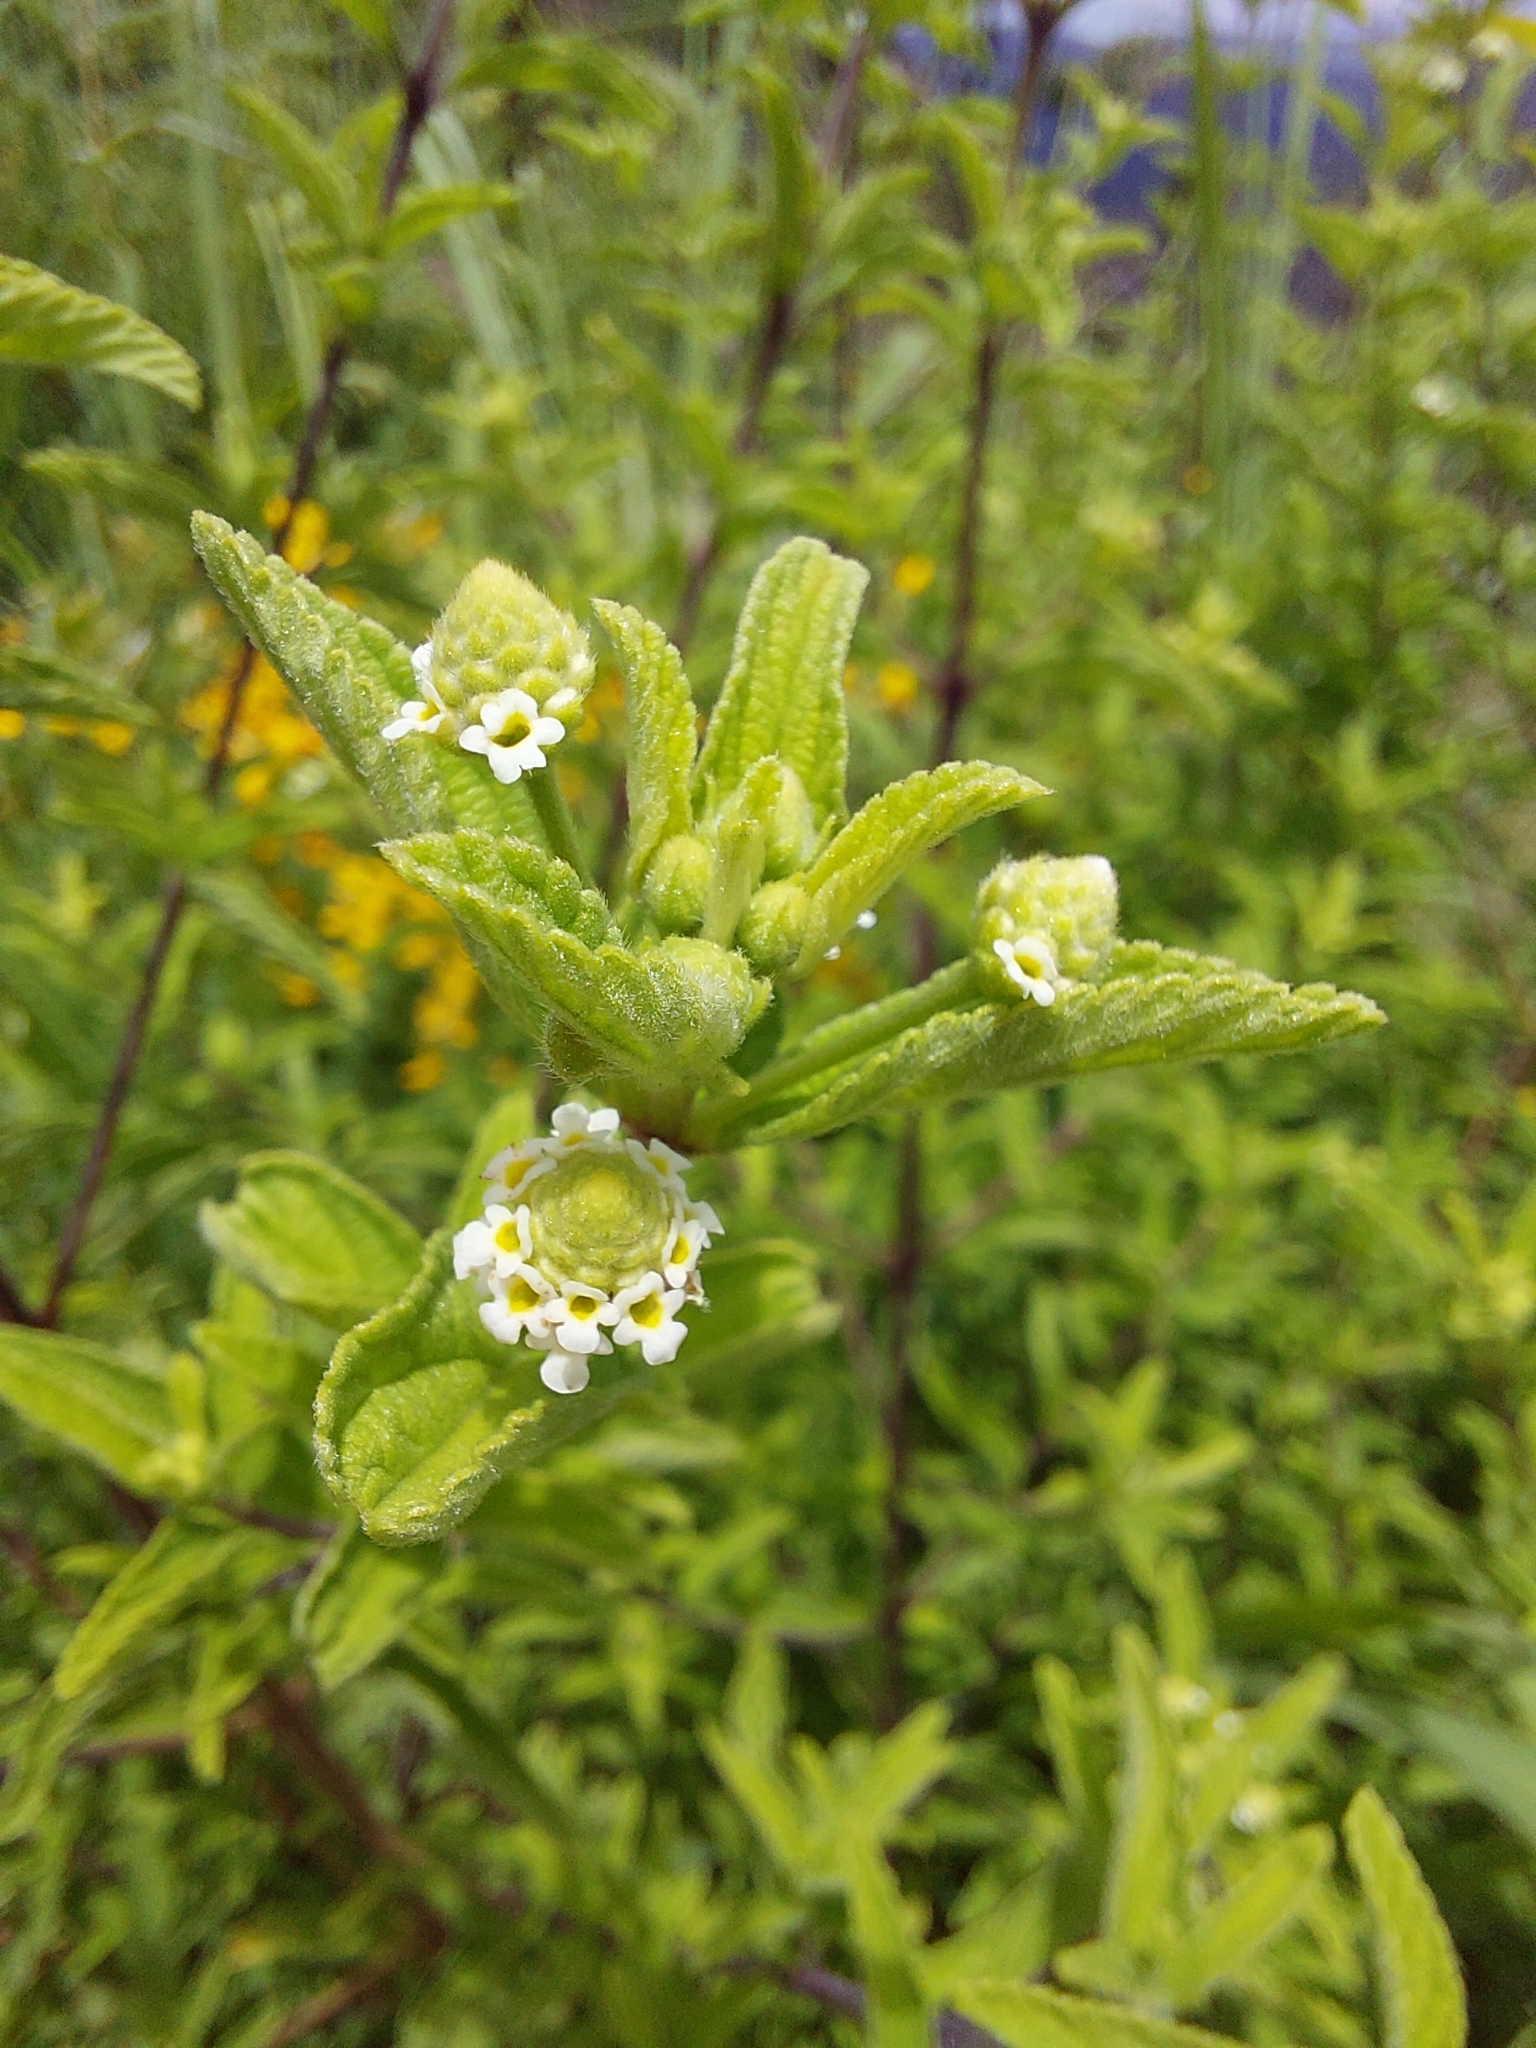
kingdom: Plantae
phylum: Tracheophyta
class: Magnoliopsida
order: Lamiales
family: Verbenaceae
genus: Lippia
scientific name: Lippia javanica
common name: Lemonbush
